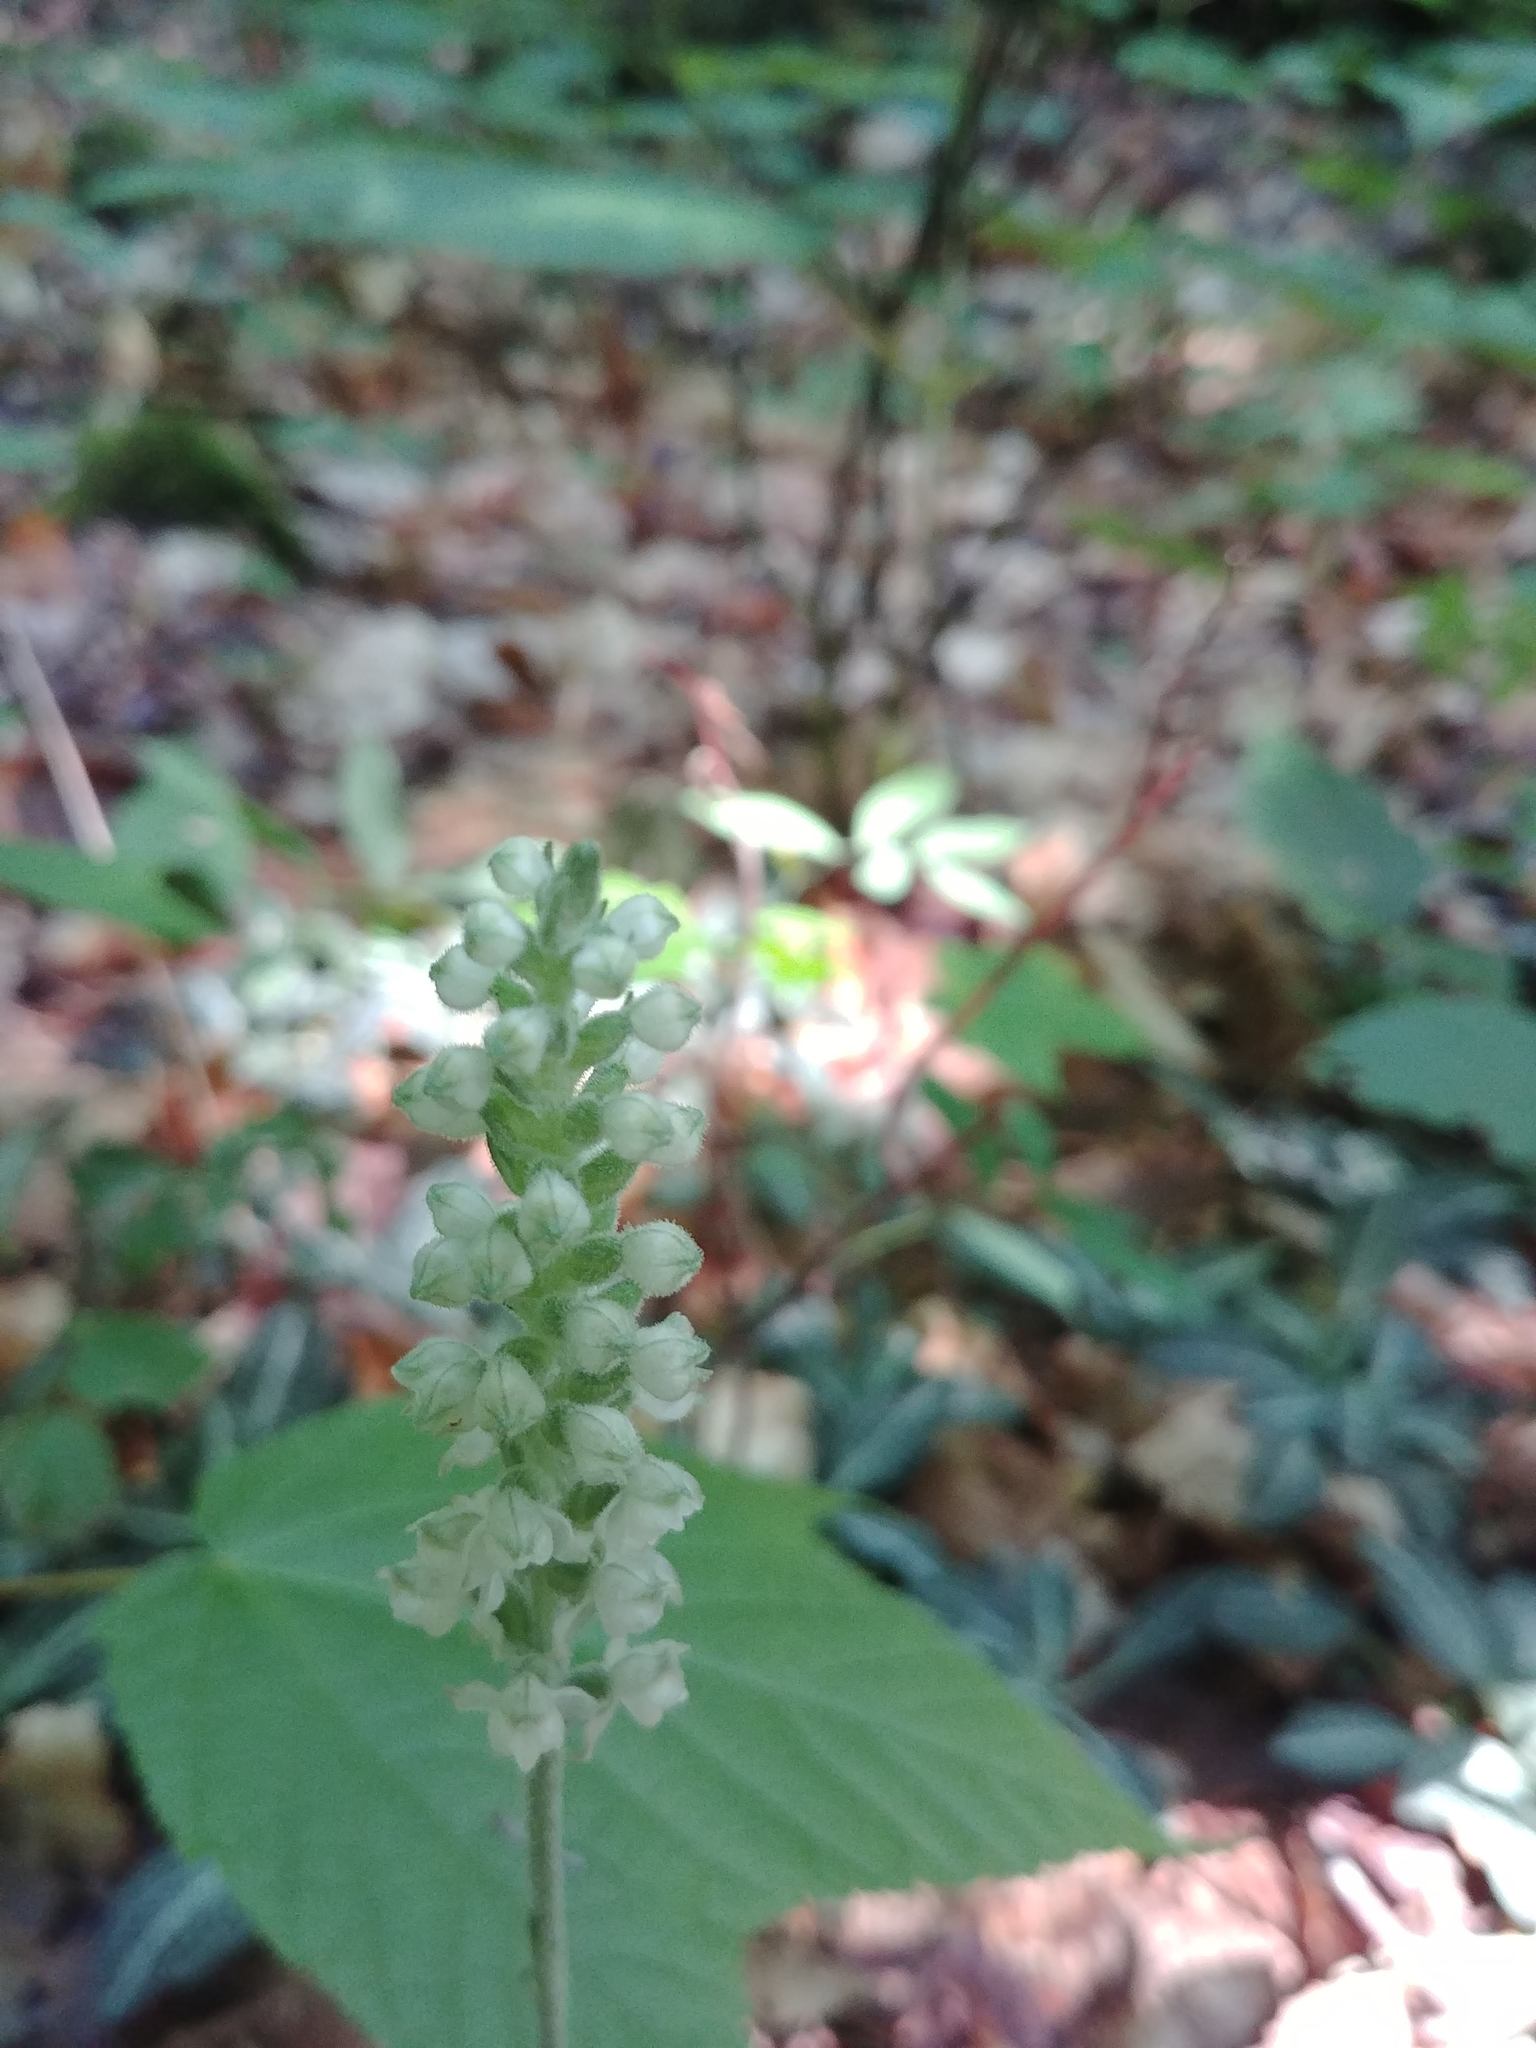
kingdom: Plantae
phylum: Tracheophyta
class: Liliopsida
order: Asparagales
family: Orchidaceae
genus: Goodyera
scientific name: Goodyera pubescens
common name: Downy rattlesnake-plantain
